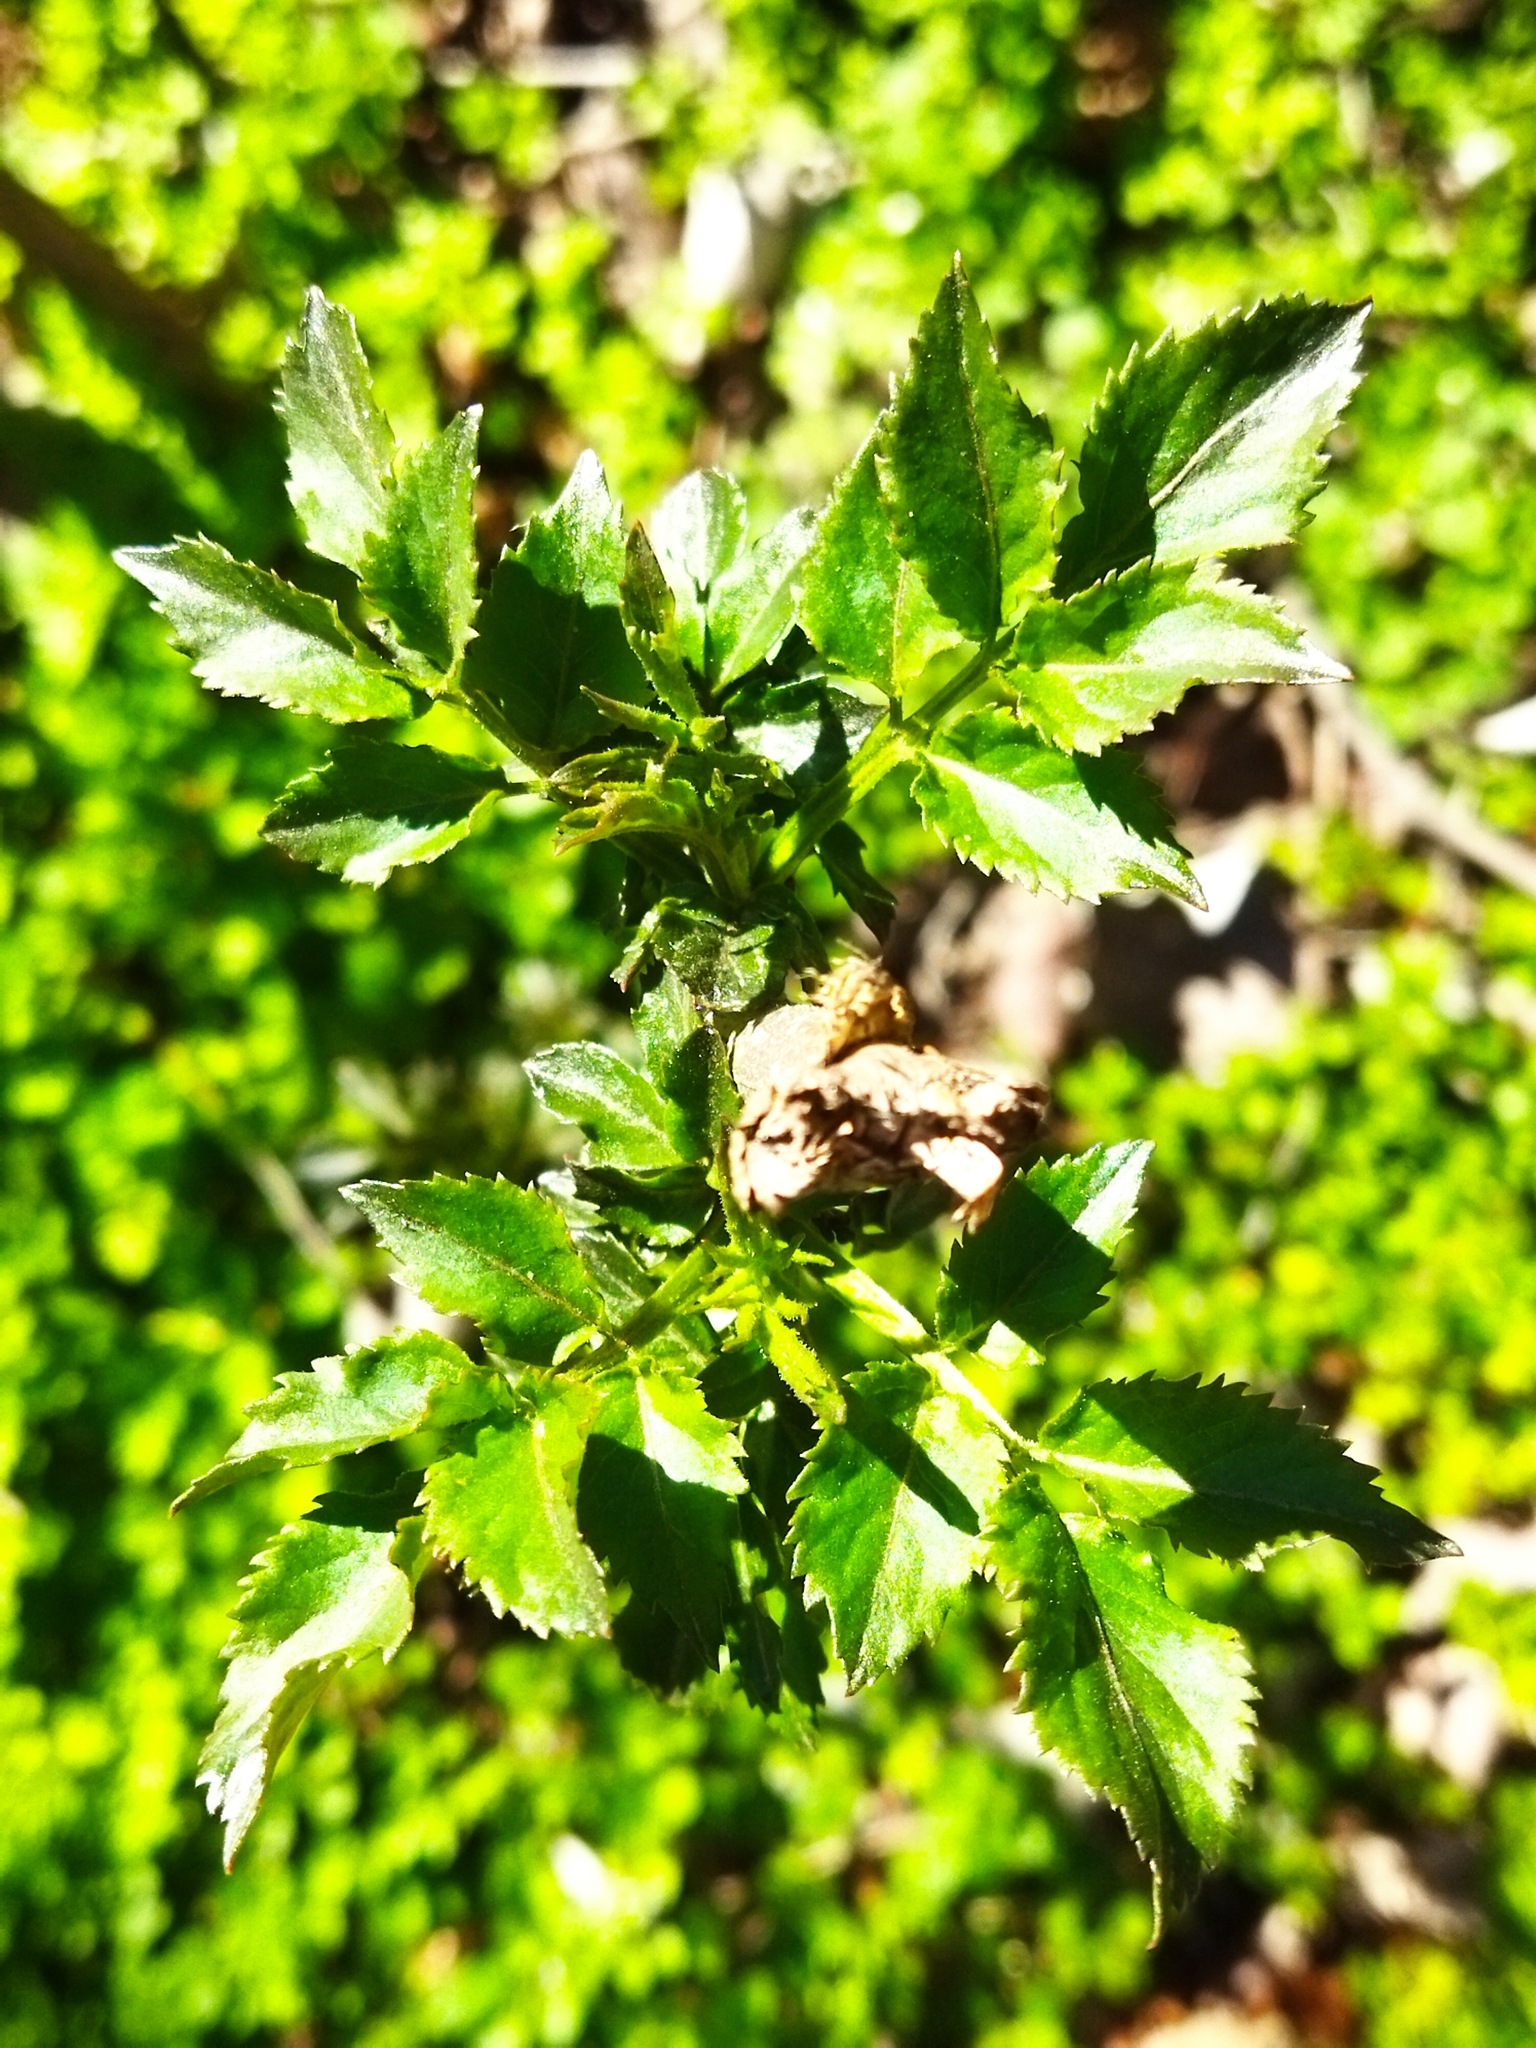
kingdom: Plantae
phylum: Tracheophyta
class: Magnoliopsida
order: Dipsacales
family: Viburnaceae
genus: Sambucus
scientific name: Sambucus nigra
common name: Elder
